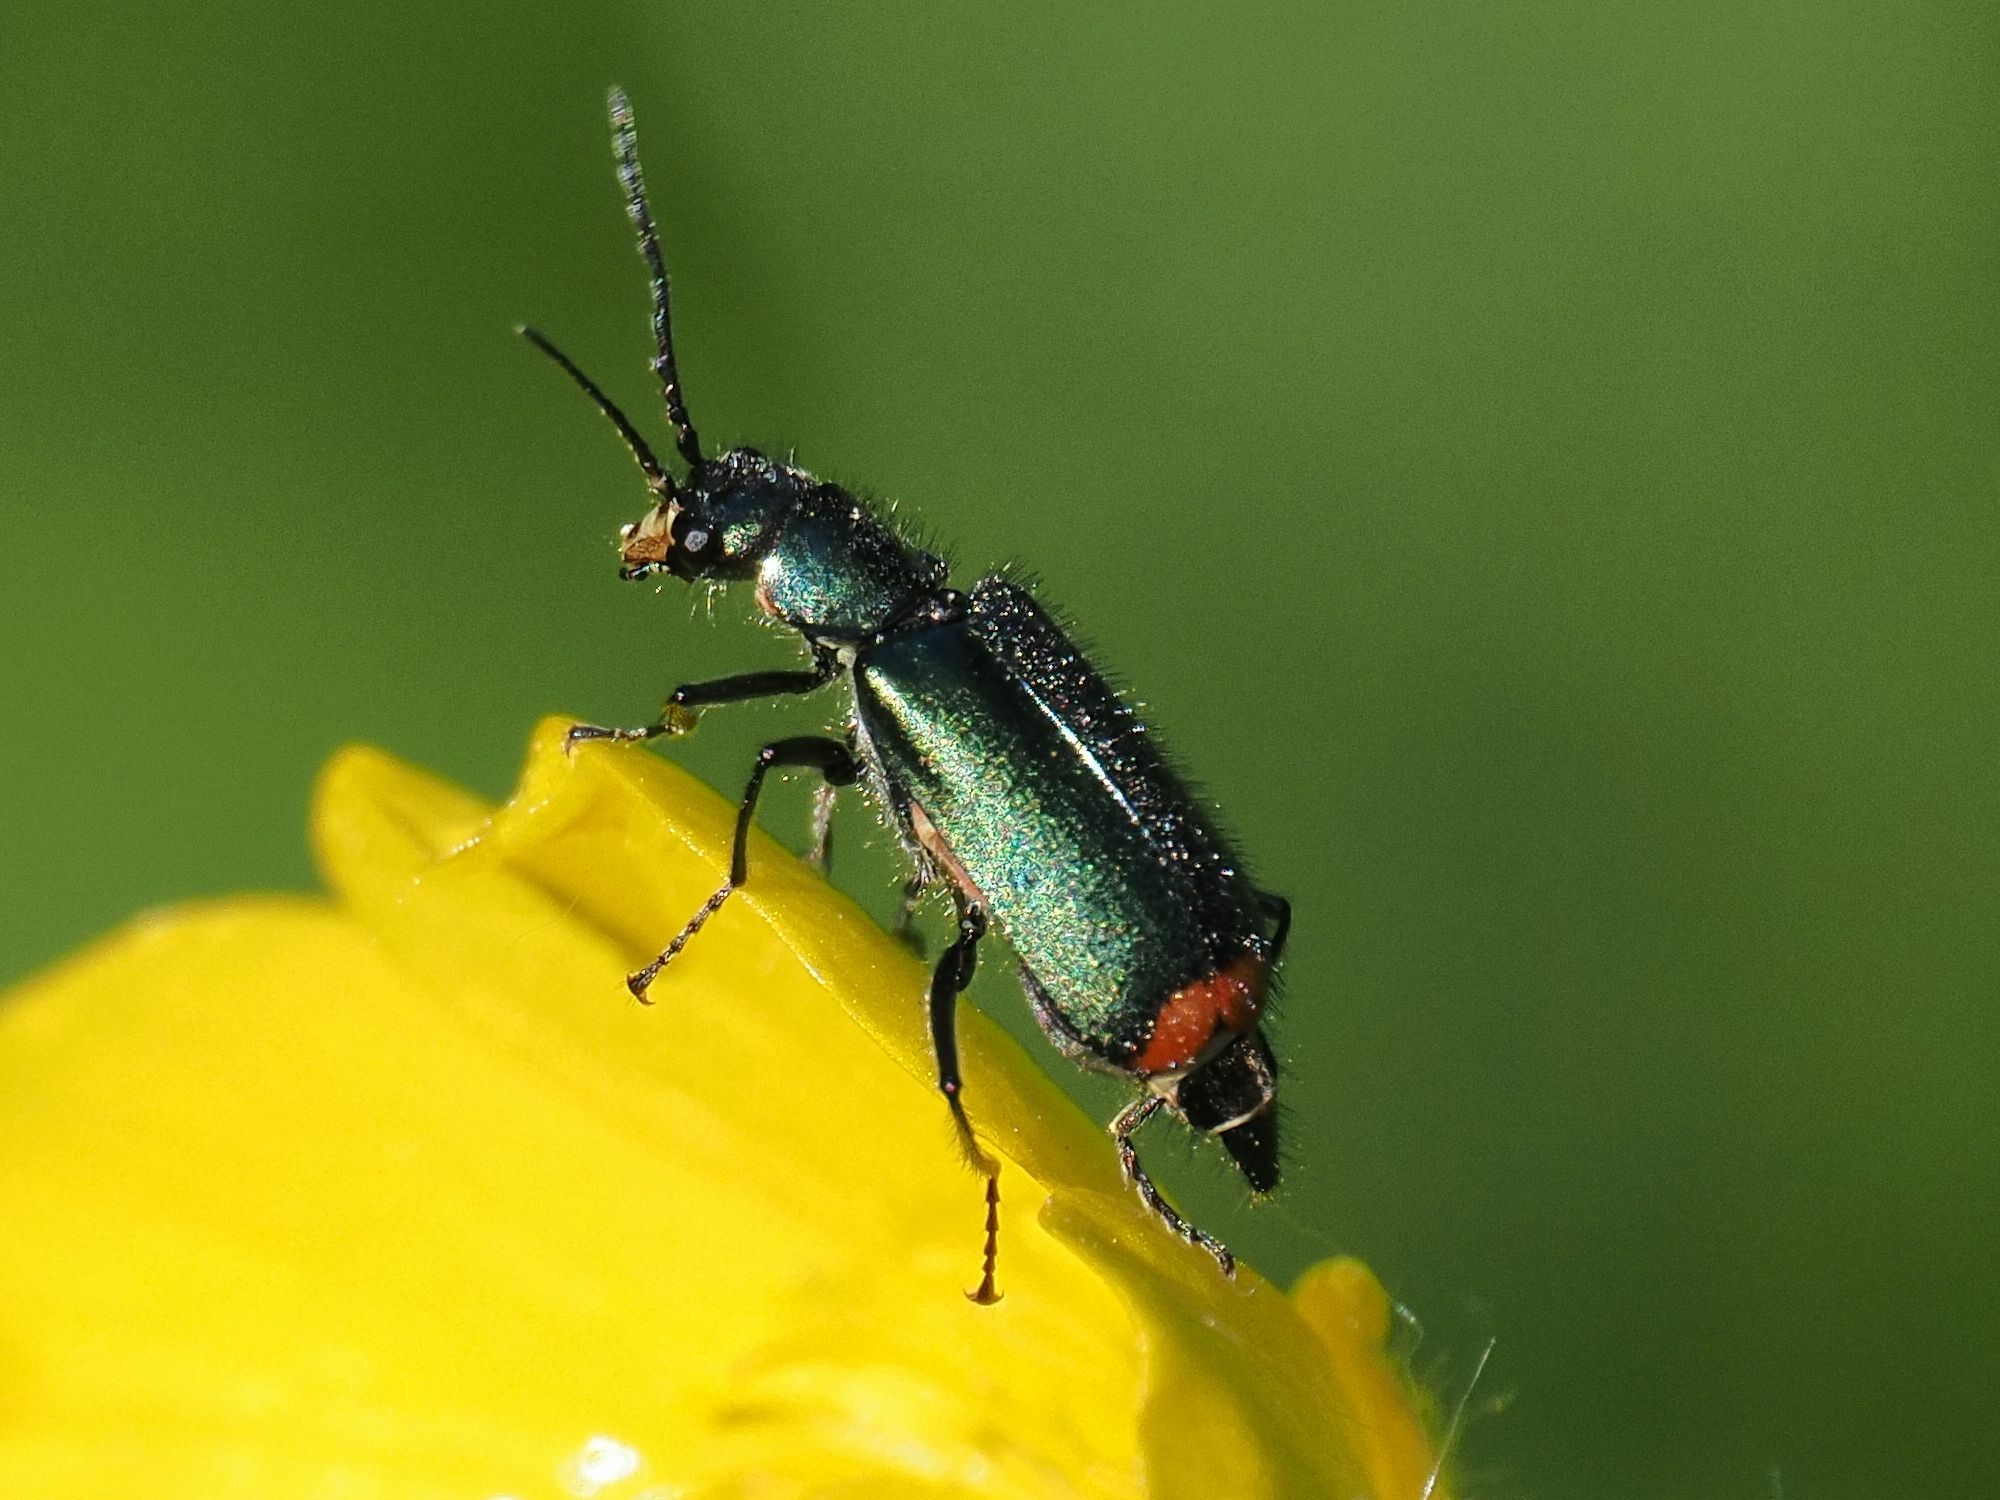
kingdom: Animalia
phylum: Arthropoda
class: Insecta
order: Coleoptera
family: Melyridae
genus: Malachius
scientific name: Malachius bipustulatus
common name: Malachite beetle
